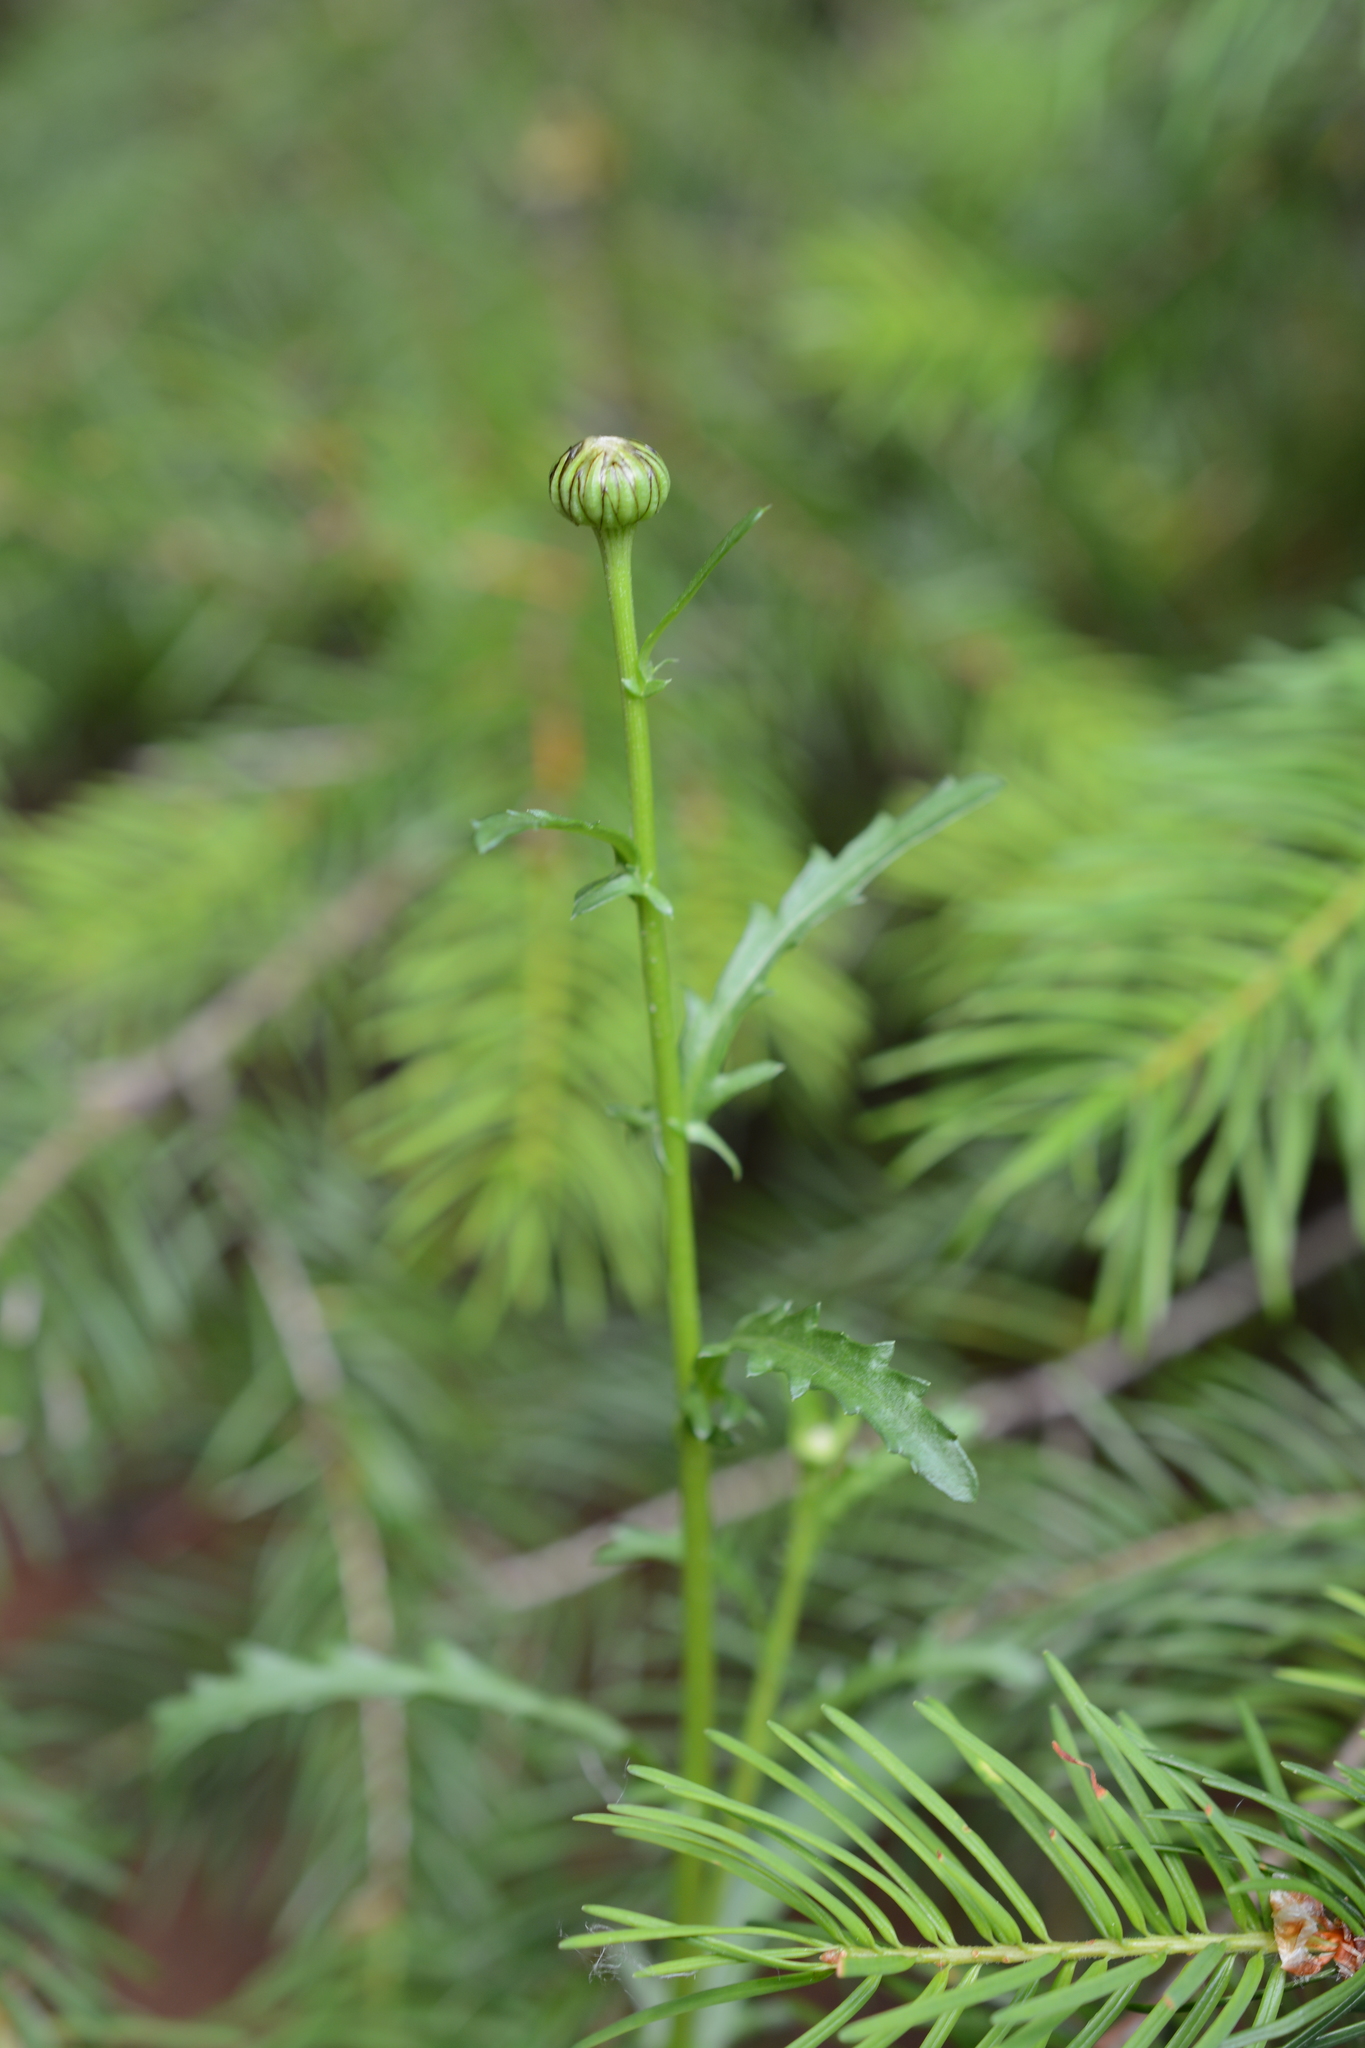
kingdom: Plantae
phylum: Tracheophyta
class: Magnoliopsida
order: Asterales
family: Asteraceae
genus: Leucanthemum
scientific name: Leucanthemum vulgare
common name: Oxeye daisy
